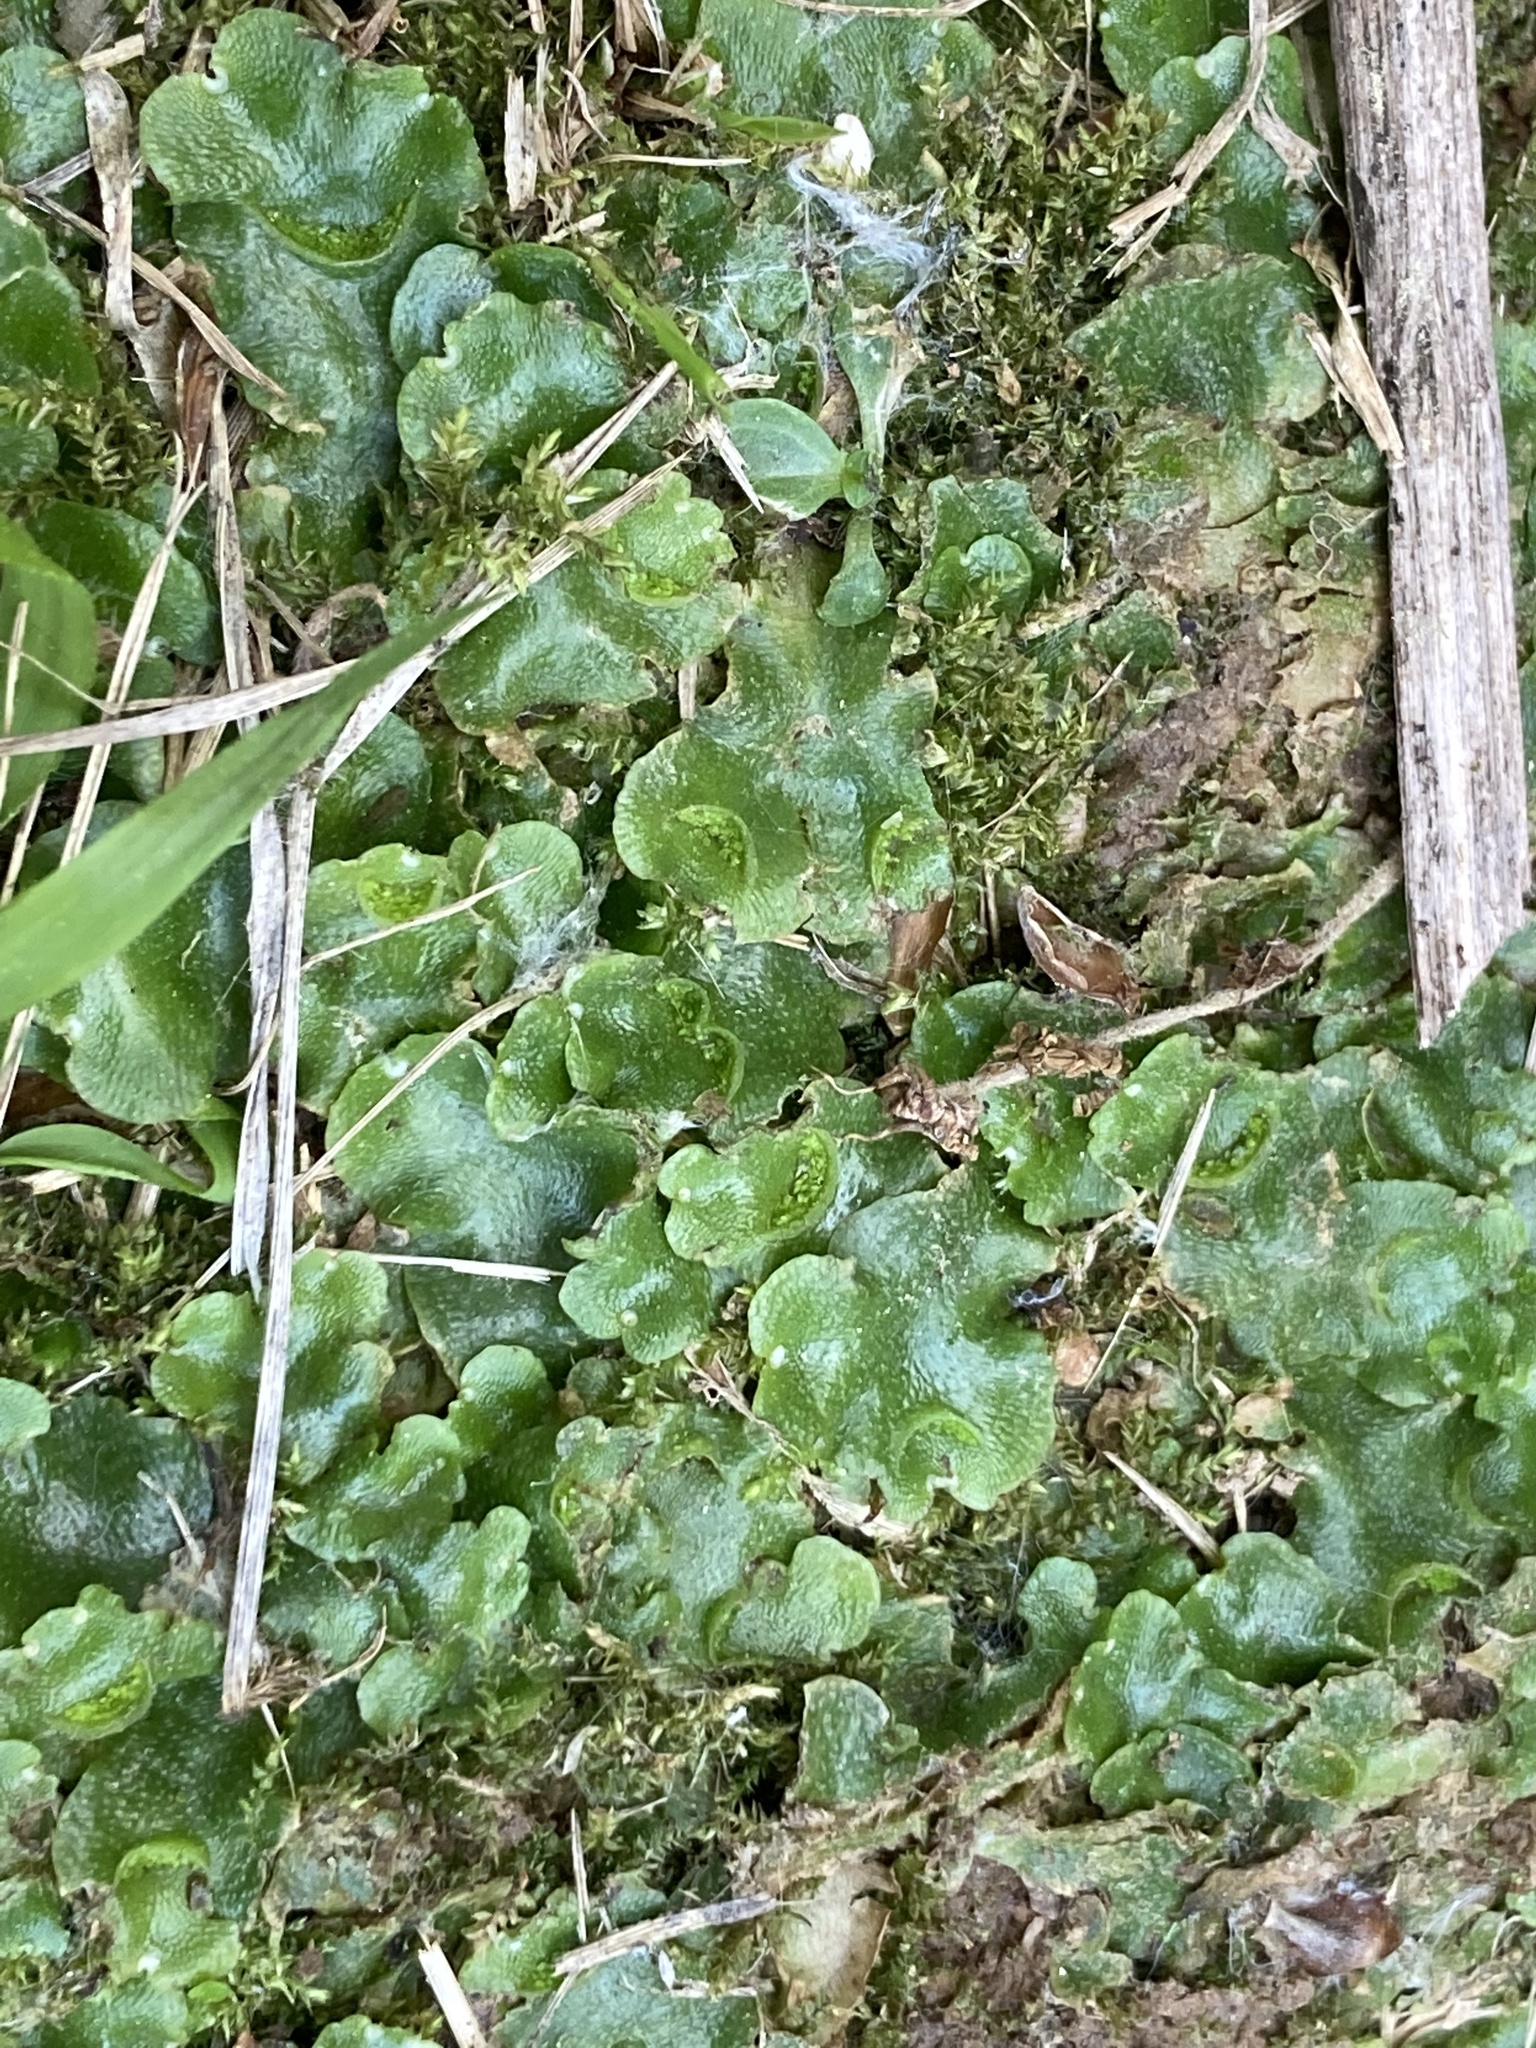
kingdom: Plantae
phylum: Marchantiophyta
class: Marchantiopsida
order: Lunulariales
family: Lunulariaceae
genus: Lunularia
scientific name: Lunularia cruciata
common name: Crescent-cup liverwort
